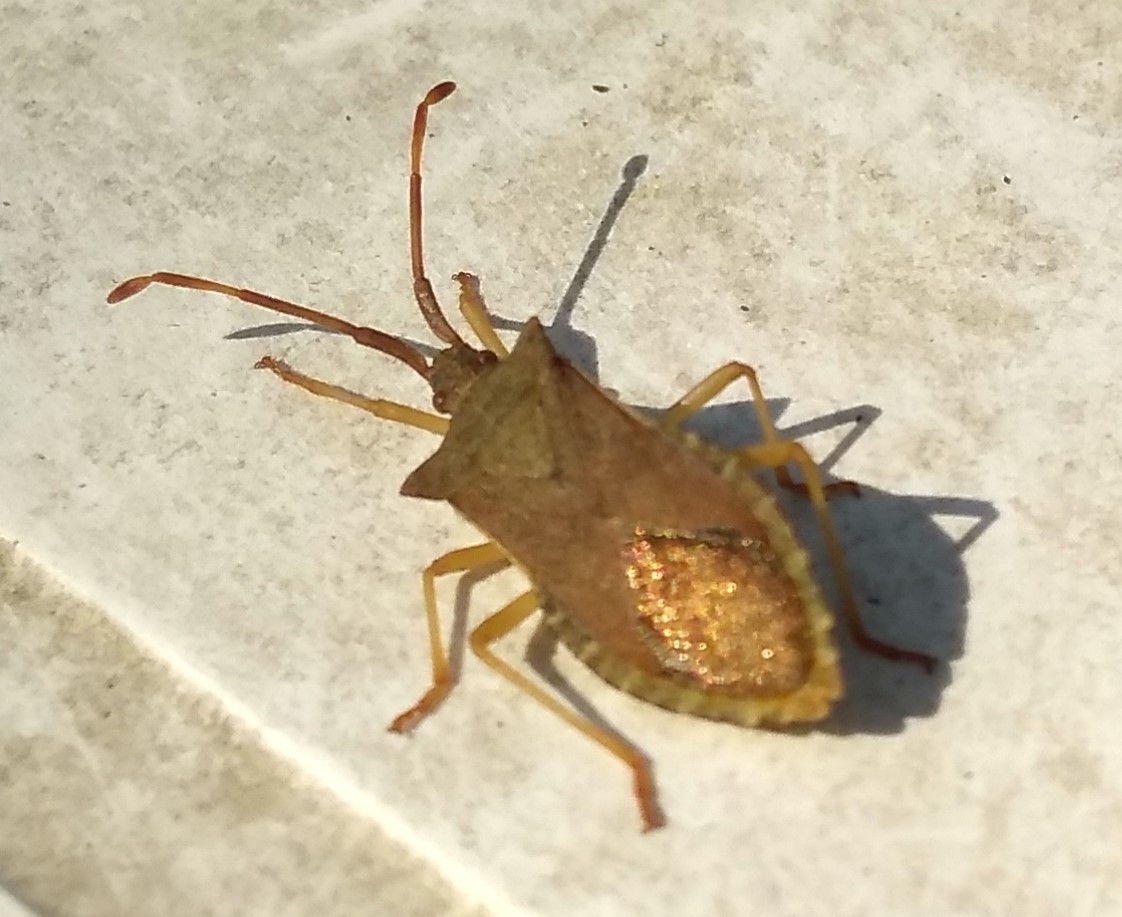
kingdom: Animalia
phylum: Arthropoda
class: Insecta
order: Hemiptera
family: Coreidae
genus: Gonocerus
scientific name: Gonocerus acuteangulatus
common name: Box bug
